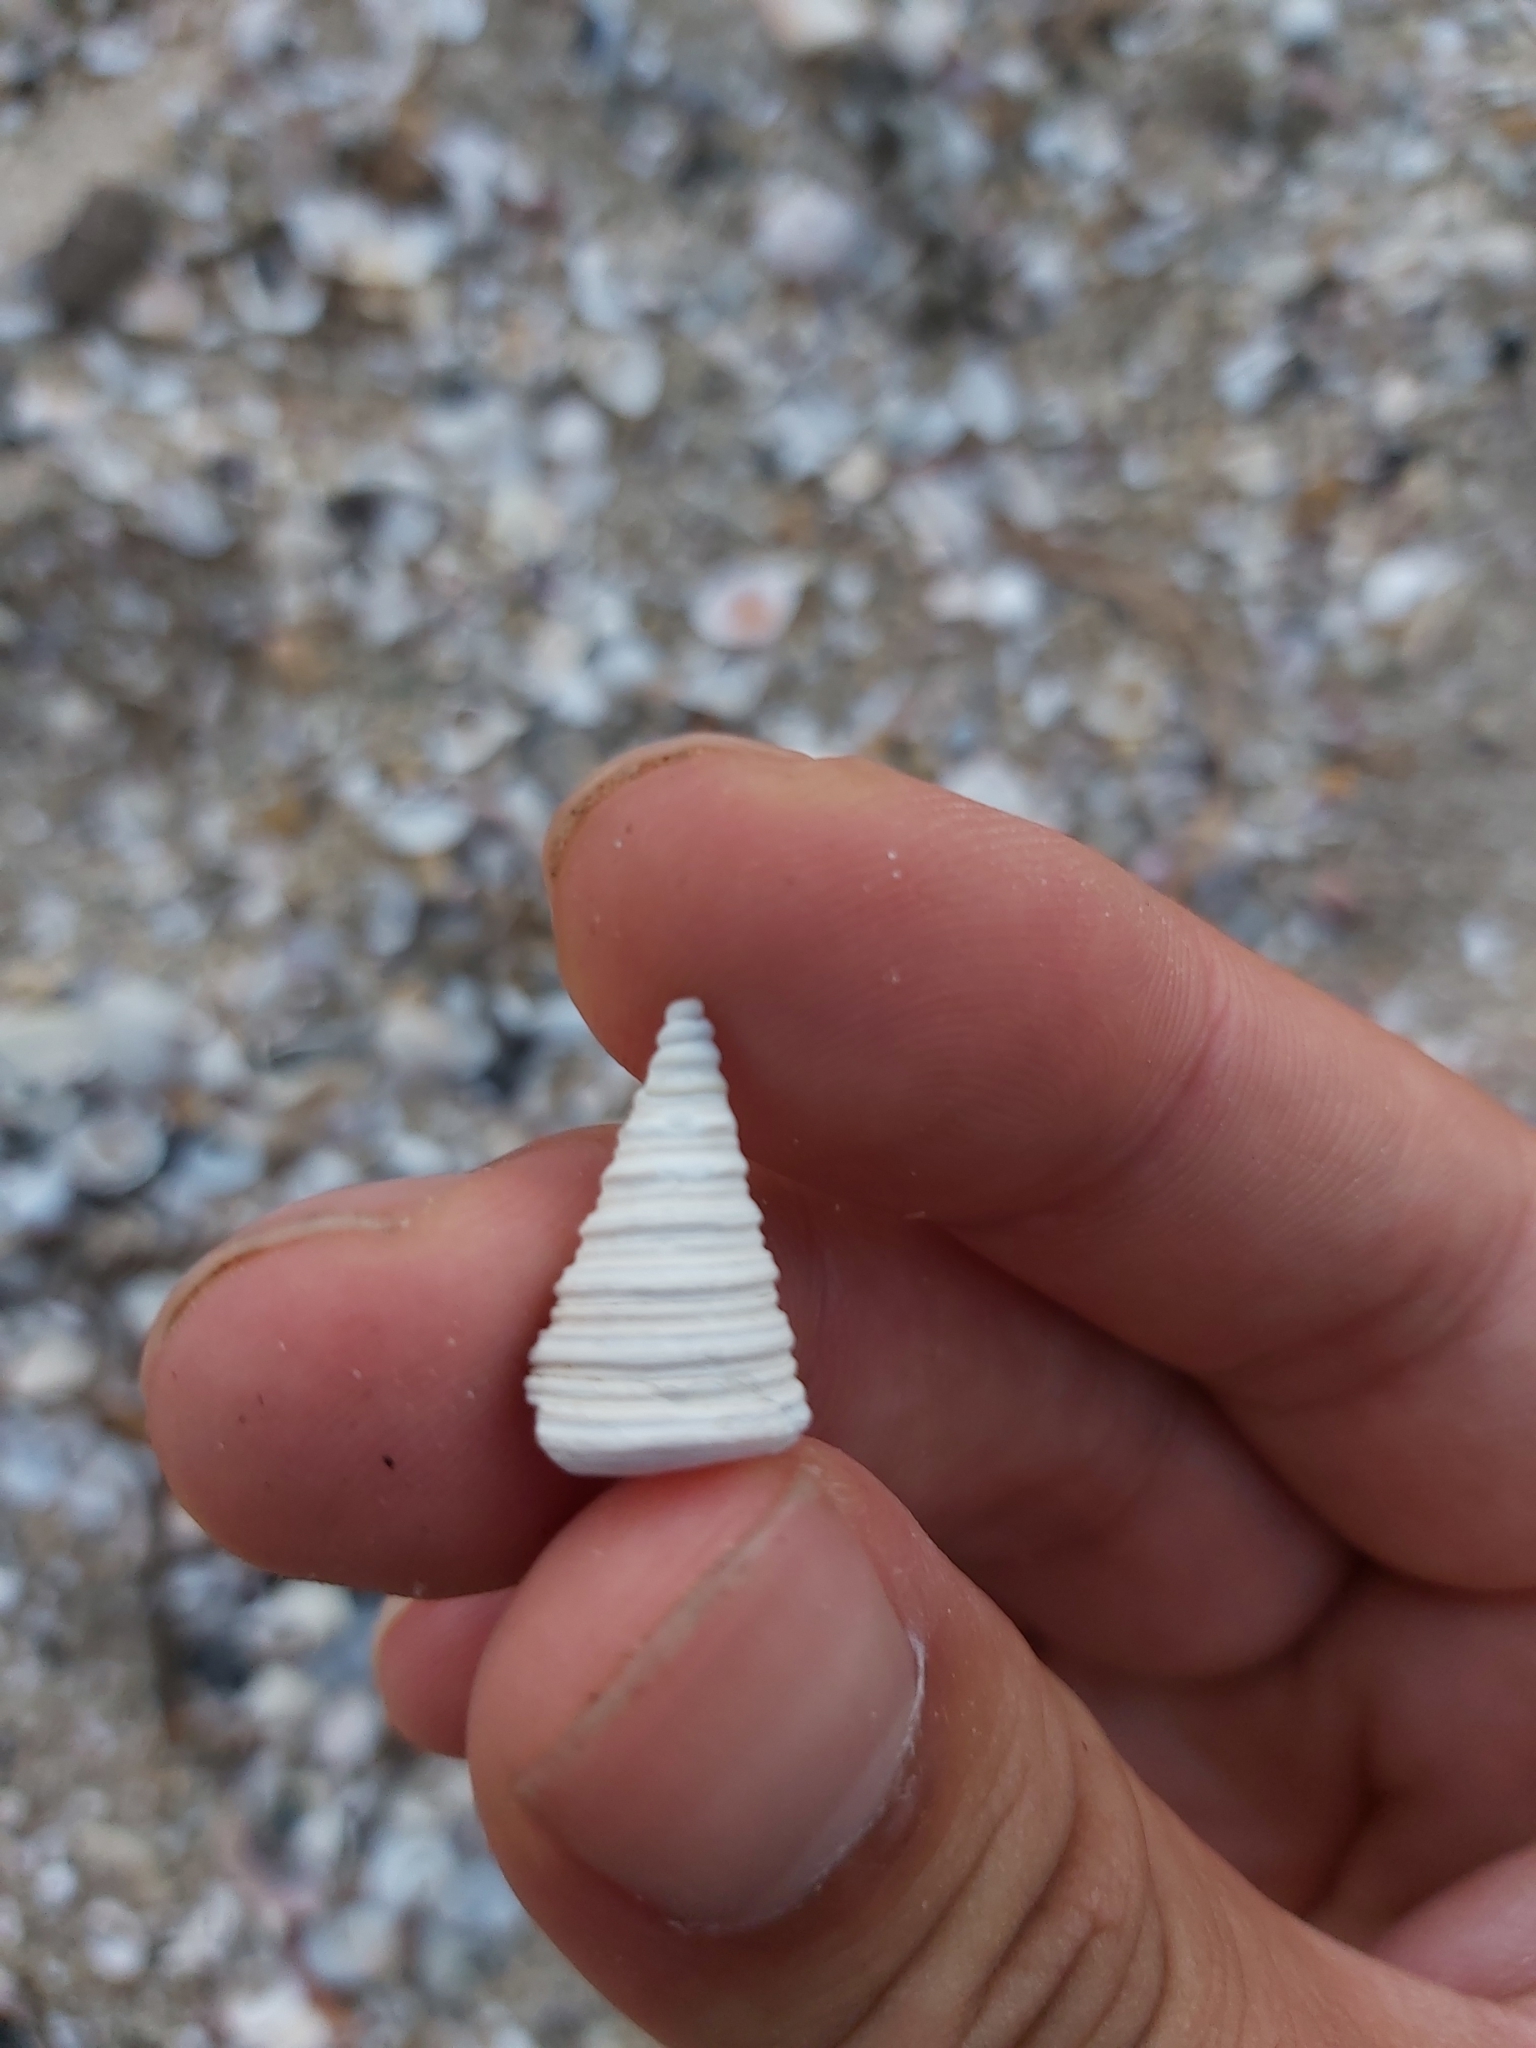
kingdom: Animalia
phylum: Mollusca
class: Gastropoda
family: Potamididae
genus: Telescopium
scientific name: Telescopium telescopium
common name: Telescope creeper
